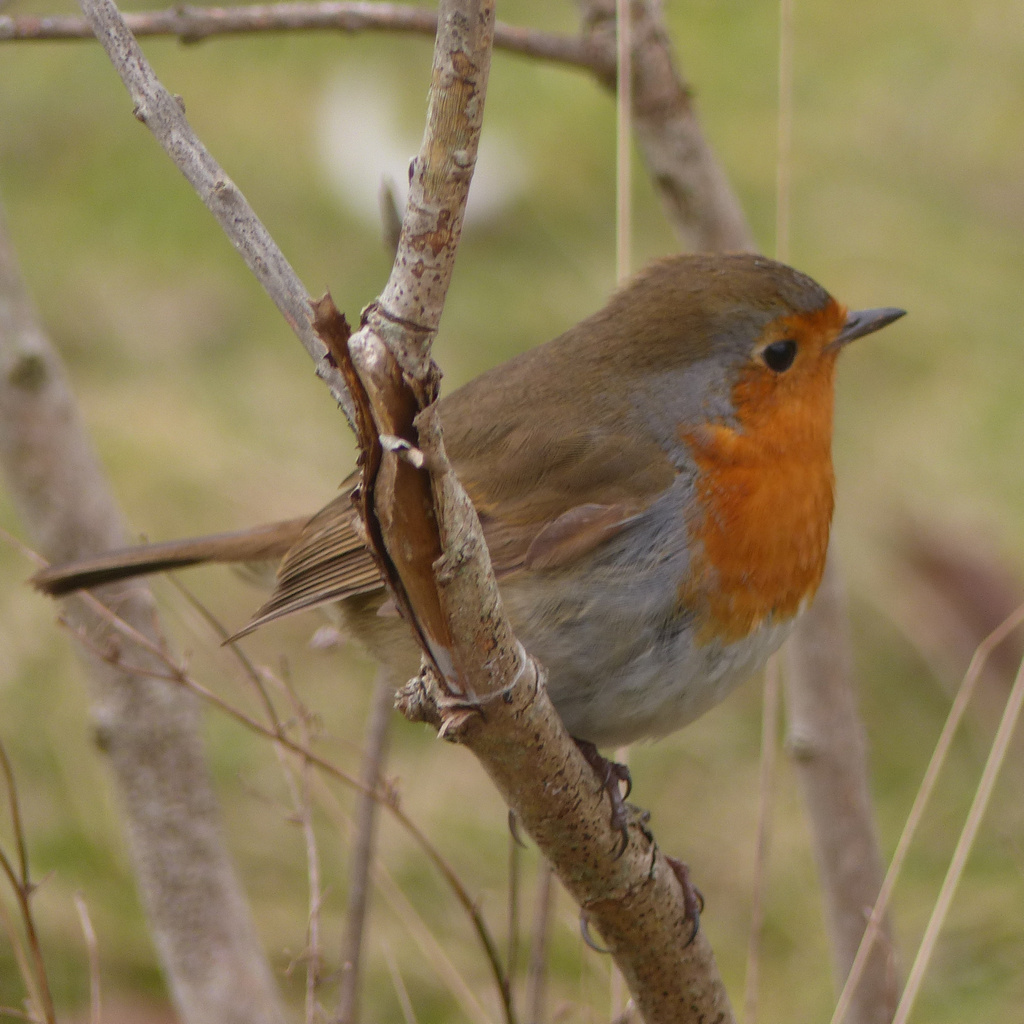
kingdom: Animalia
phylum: Chordata
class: Aves
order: Passeriformes
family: Muscicapidae
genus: Erithacus
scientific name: Erithacus rubecula
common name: European robin
